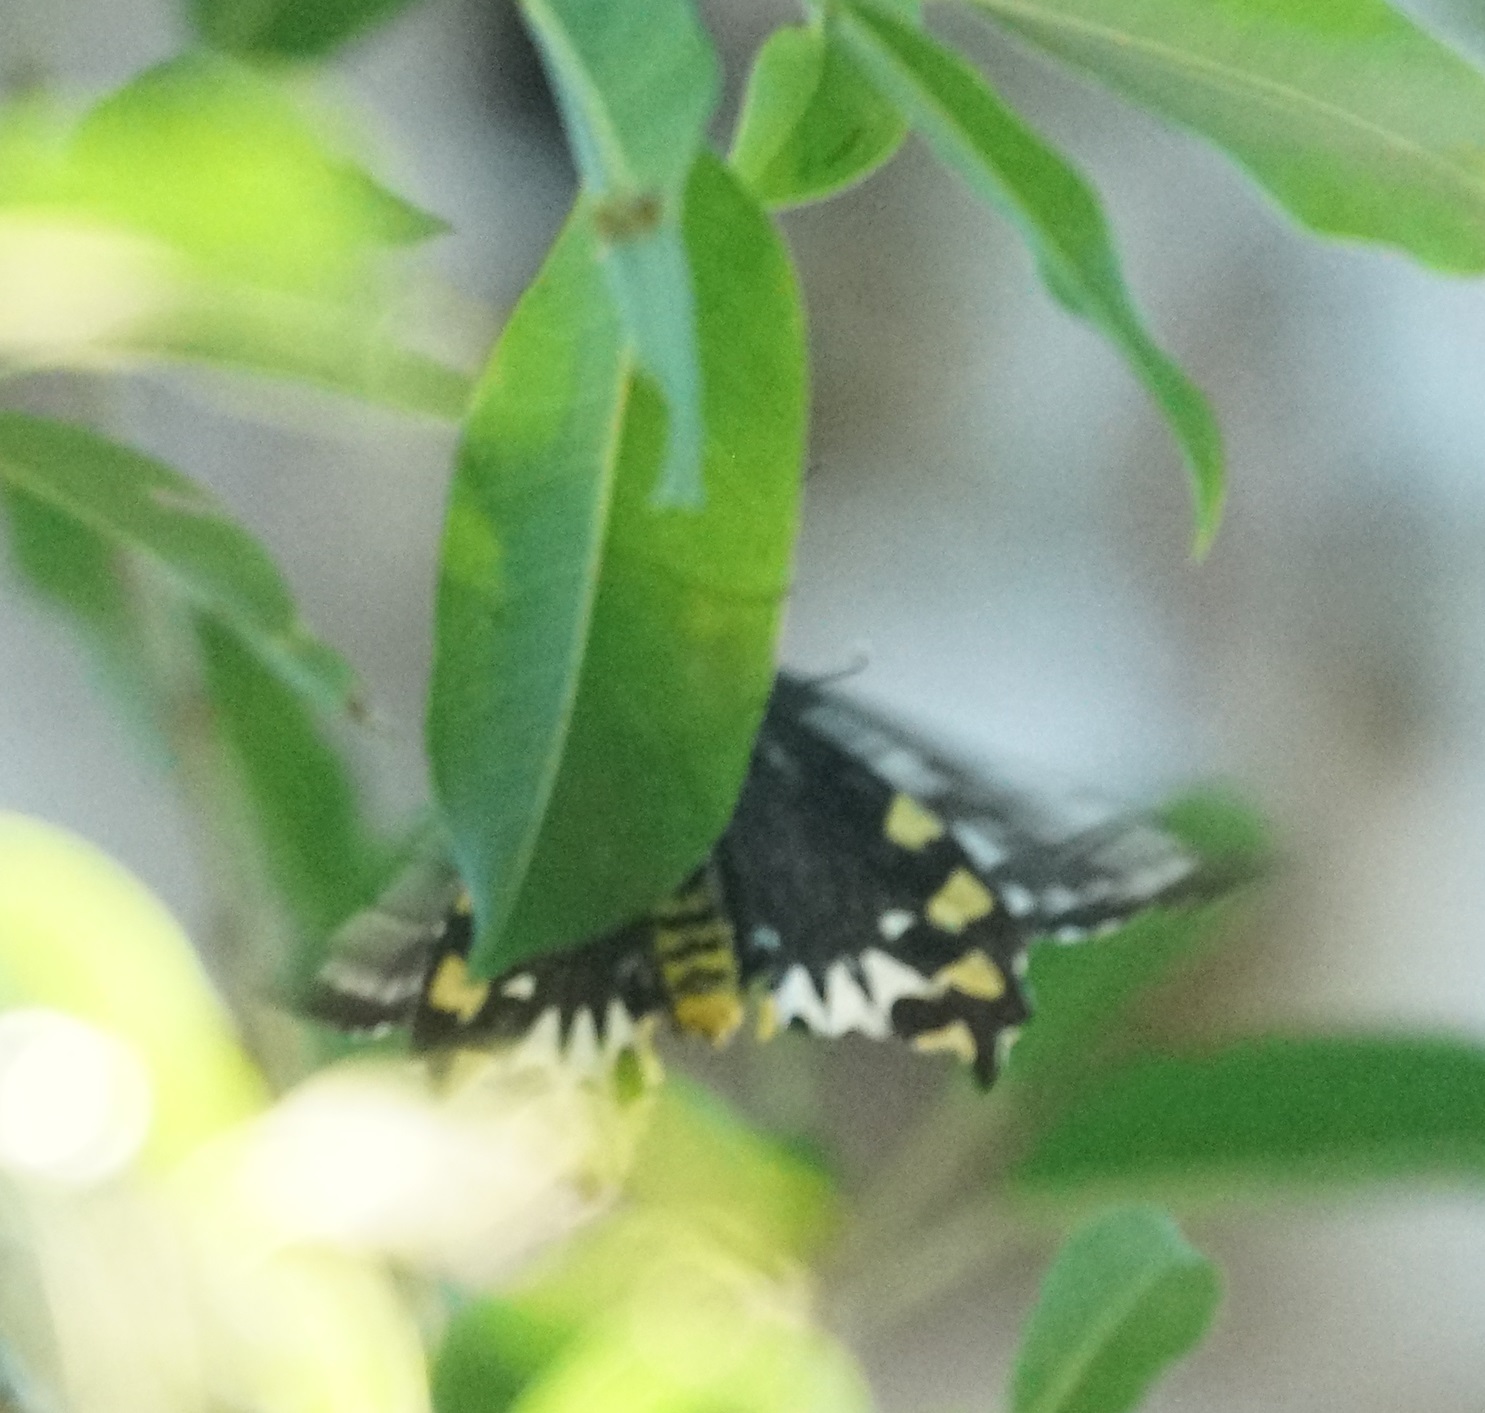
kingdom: Animalia
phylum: Arthropoda
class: Insecta
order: Lepidoptera
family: Papilionidae
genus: Ornithoptera
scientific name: Ornithoptera euphorion
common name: Cairns birdwing
